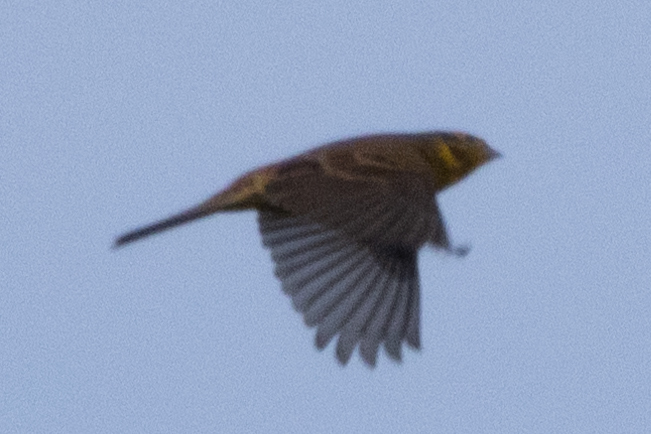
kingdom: Animalia
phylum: Chordata
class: Aves
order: Passeriformes
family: Emberizidae
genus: Emberiza
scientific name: Emberiza citrinella
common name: Yellowhammer
